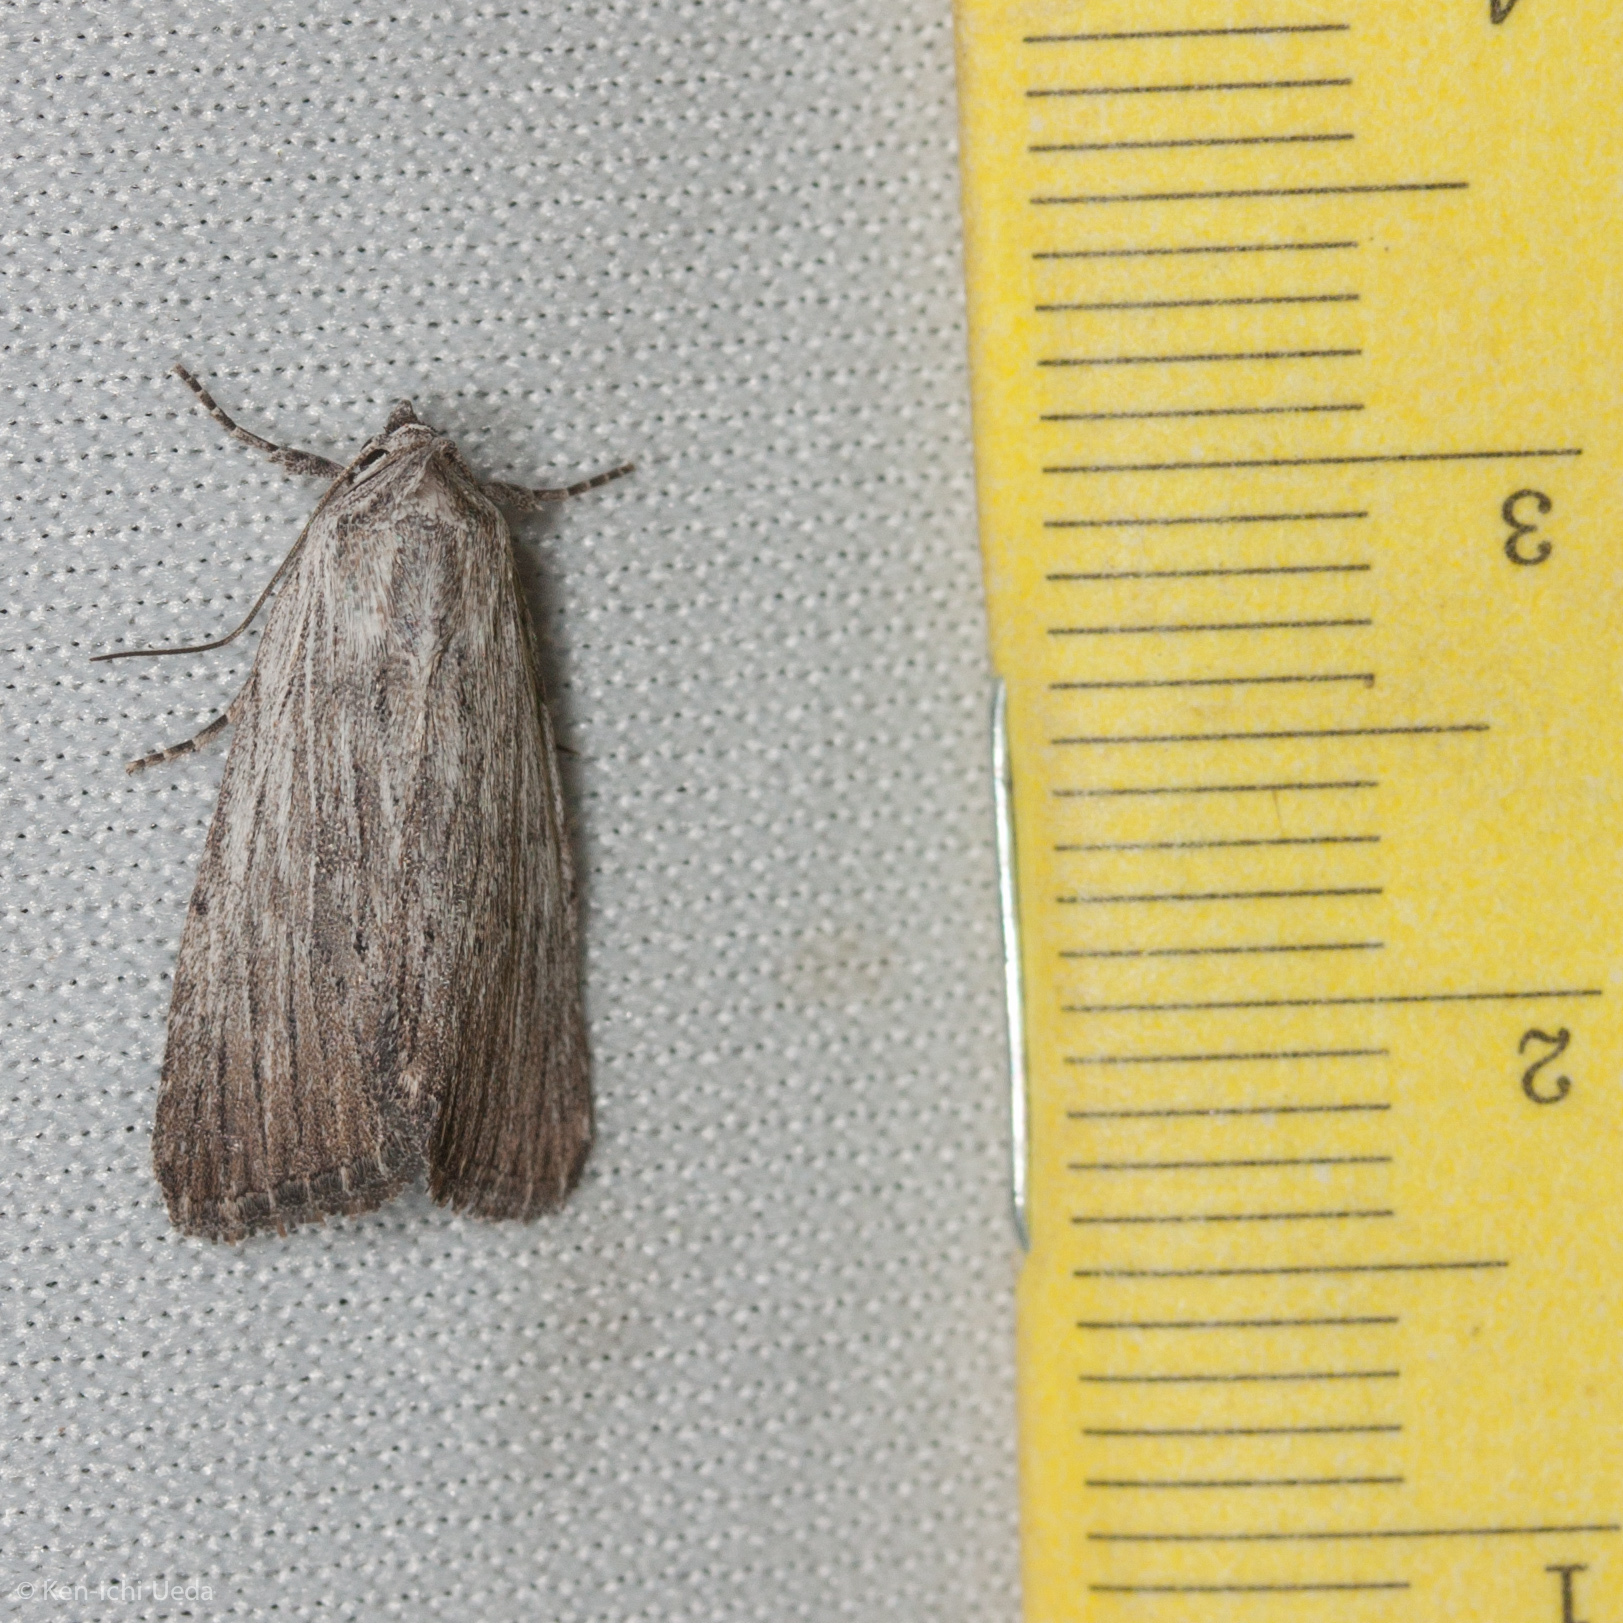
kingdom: Animalia
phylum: Arthropoda
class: Insecta
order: Lepidoptera
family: Noctuidae
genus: Catabena
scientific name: Catabena lineolata
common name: Fine-lined sallow
